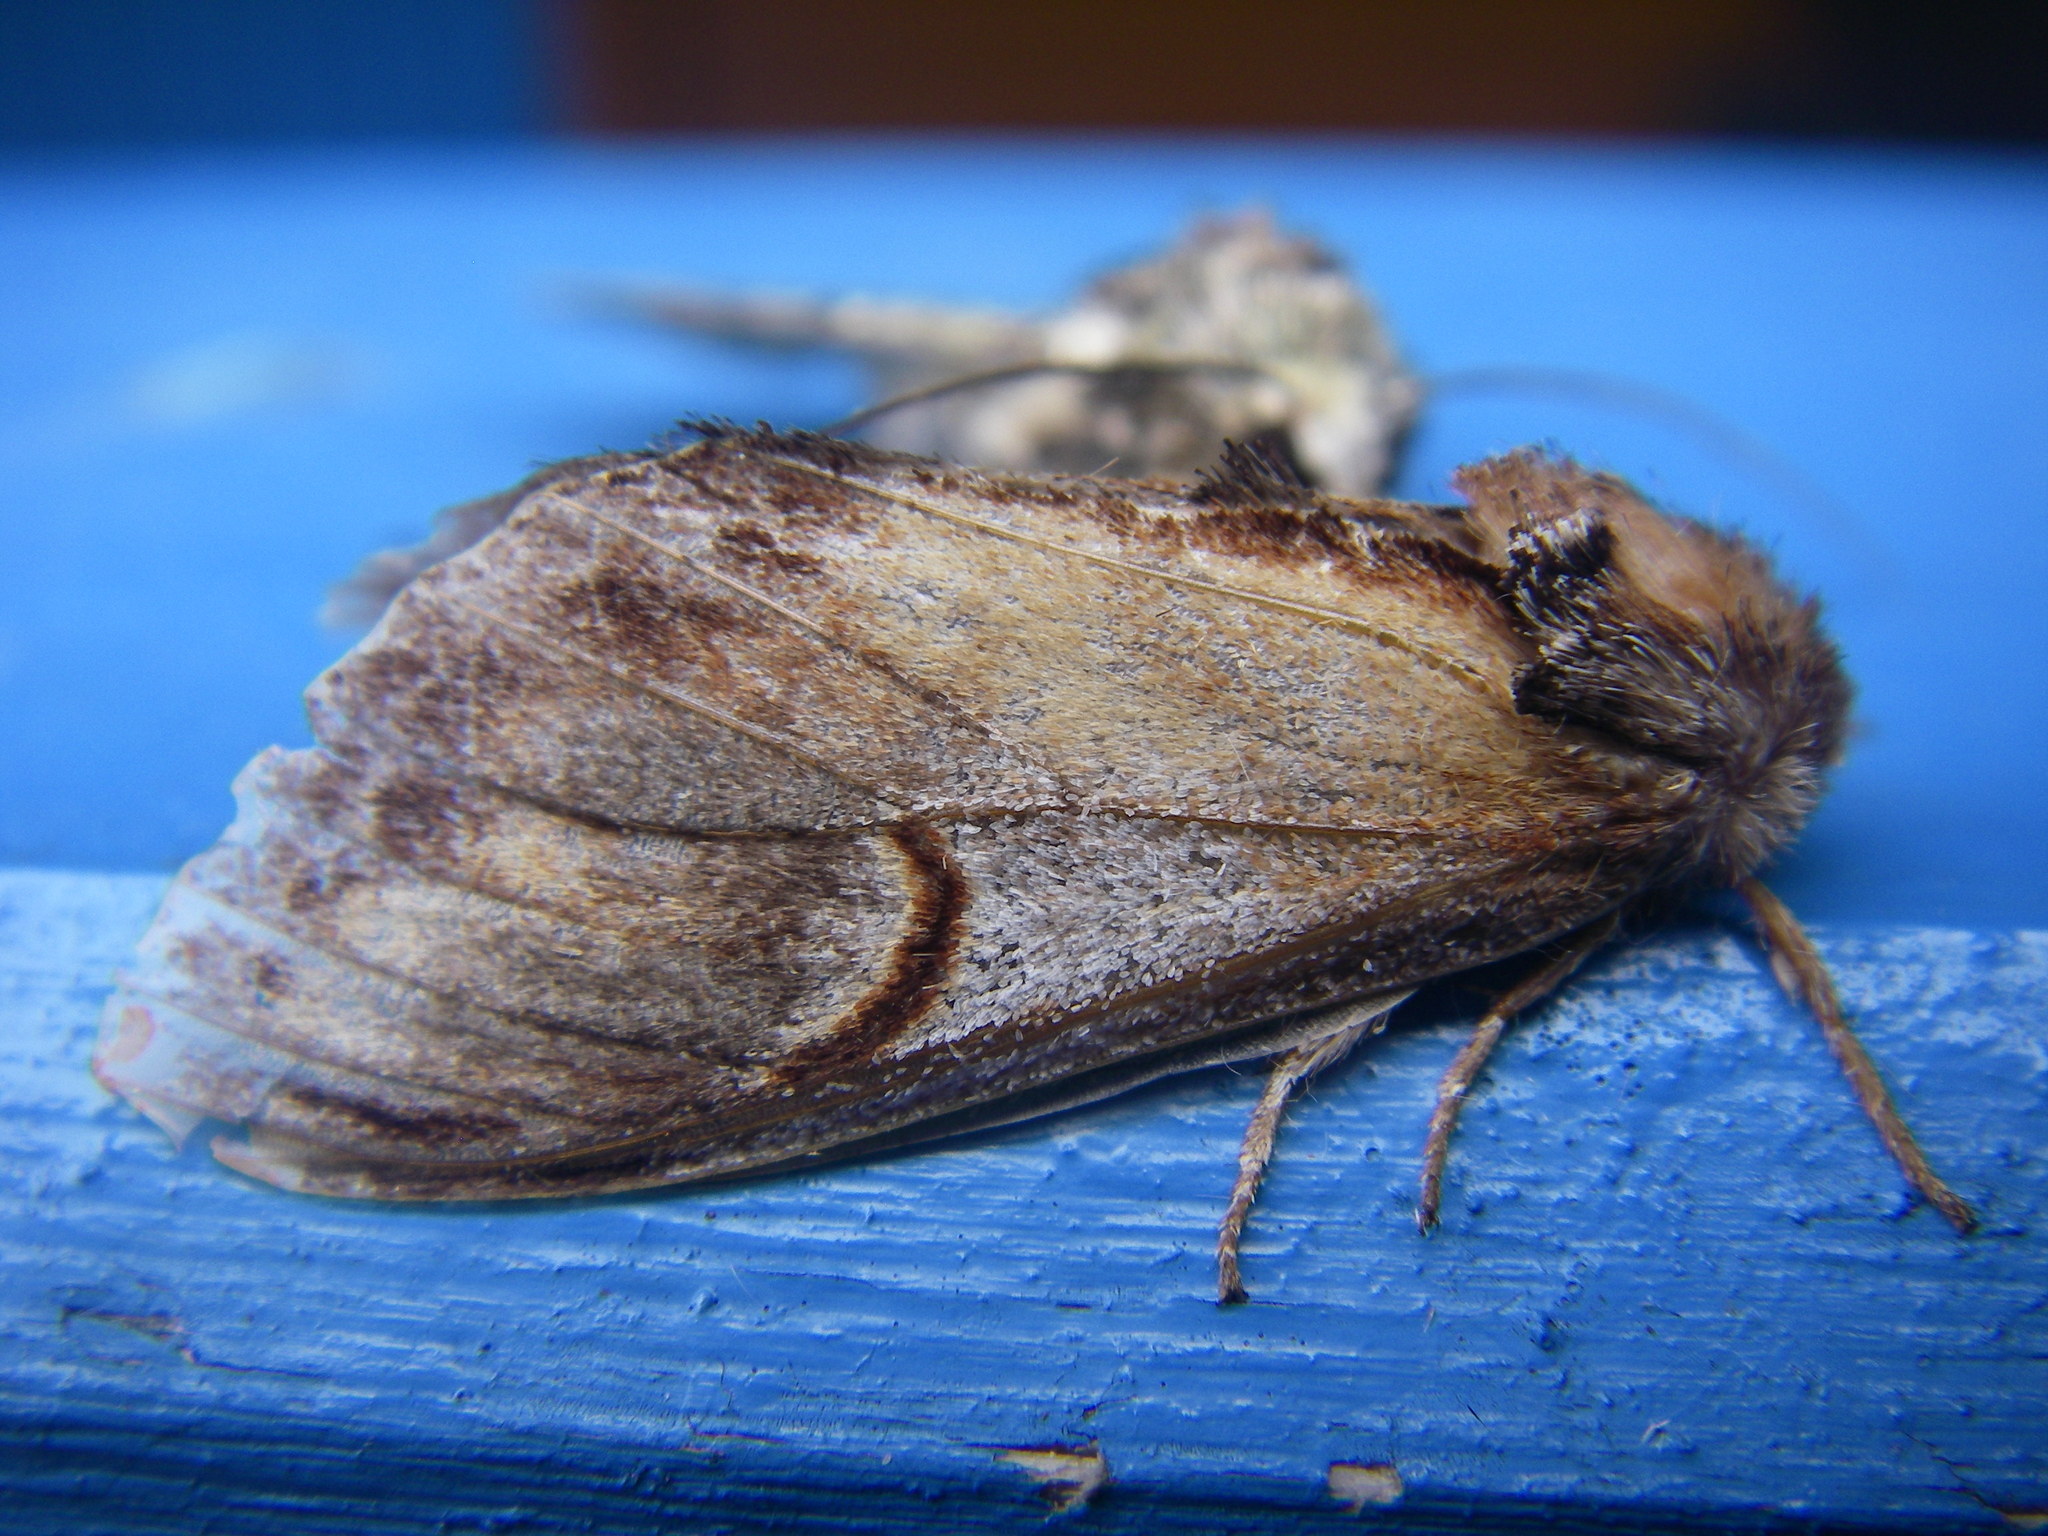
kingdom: Animalia
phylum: Arthropoda
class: Insecta
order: Lepidoptera
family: Notodontidae
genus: Notodonta
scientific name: Notodonta ziczac
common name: Pebble prominent
